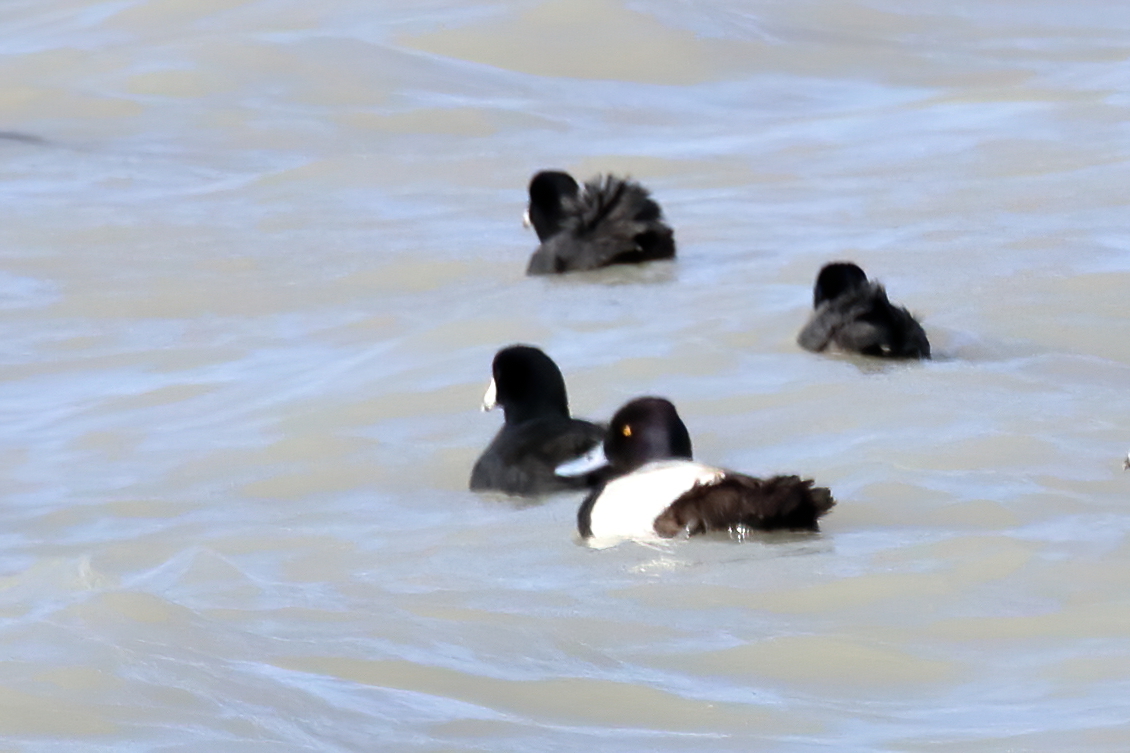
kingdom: Animalia
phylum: Chordata
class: Aves
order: Anseriformes
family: Anatidae
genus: Aythya
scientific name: Aythya affinis
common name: Lesser scaup
